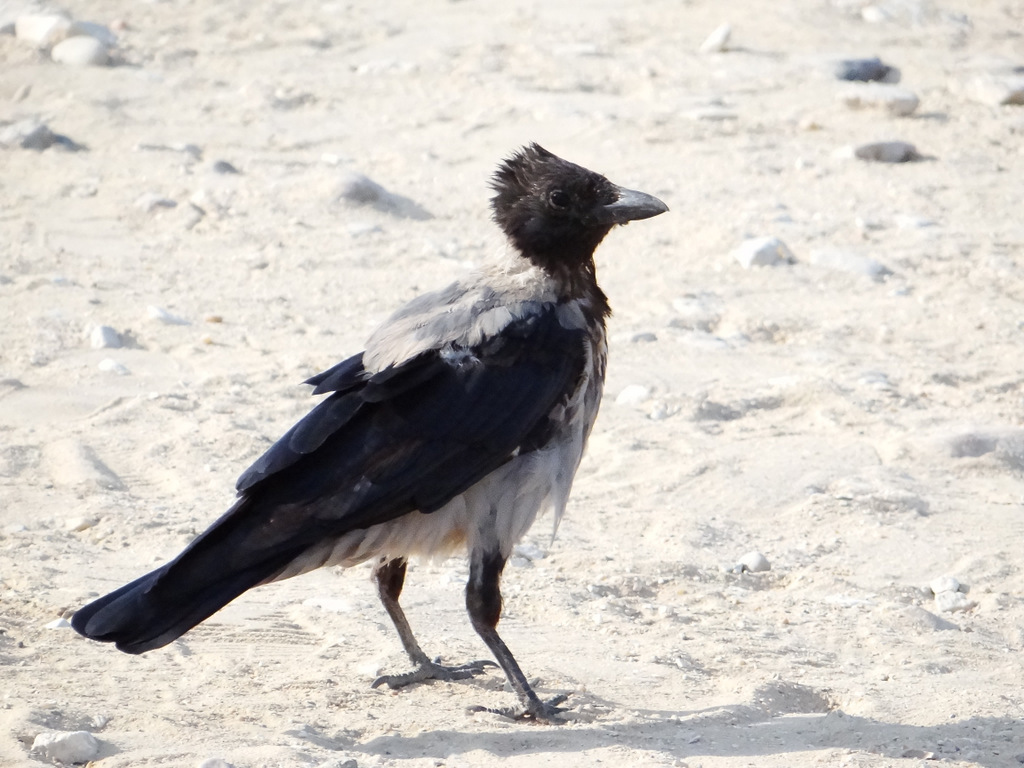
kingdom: Animalia
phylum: Chordata
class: Aves
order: Passeriformes
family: Corvidae
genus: Corvus
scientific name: Corvus cornix
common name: Hooded crow
